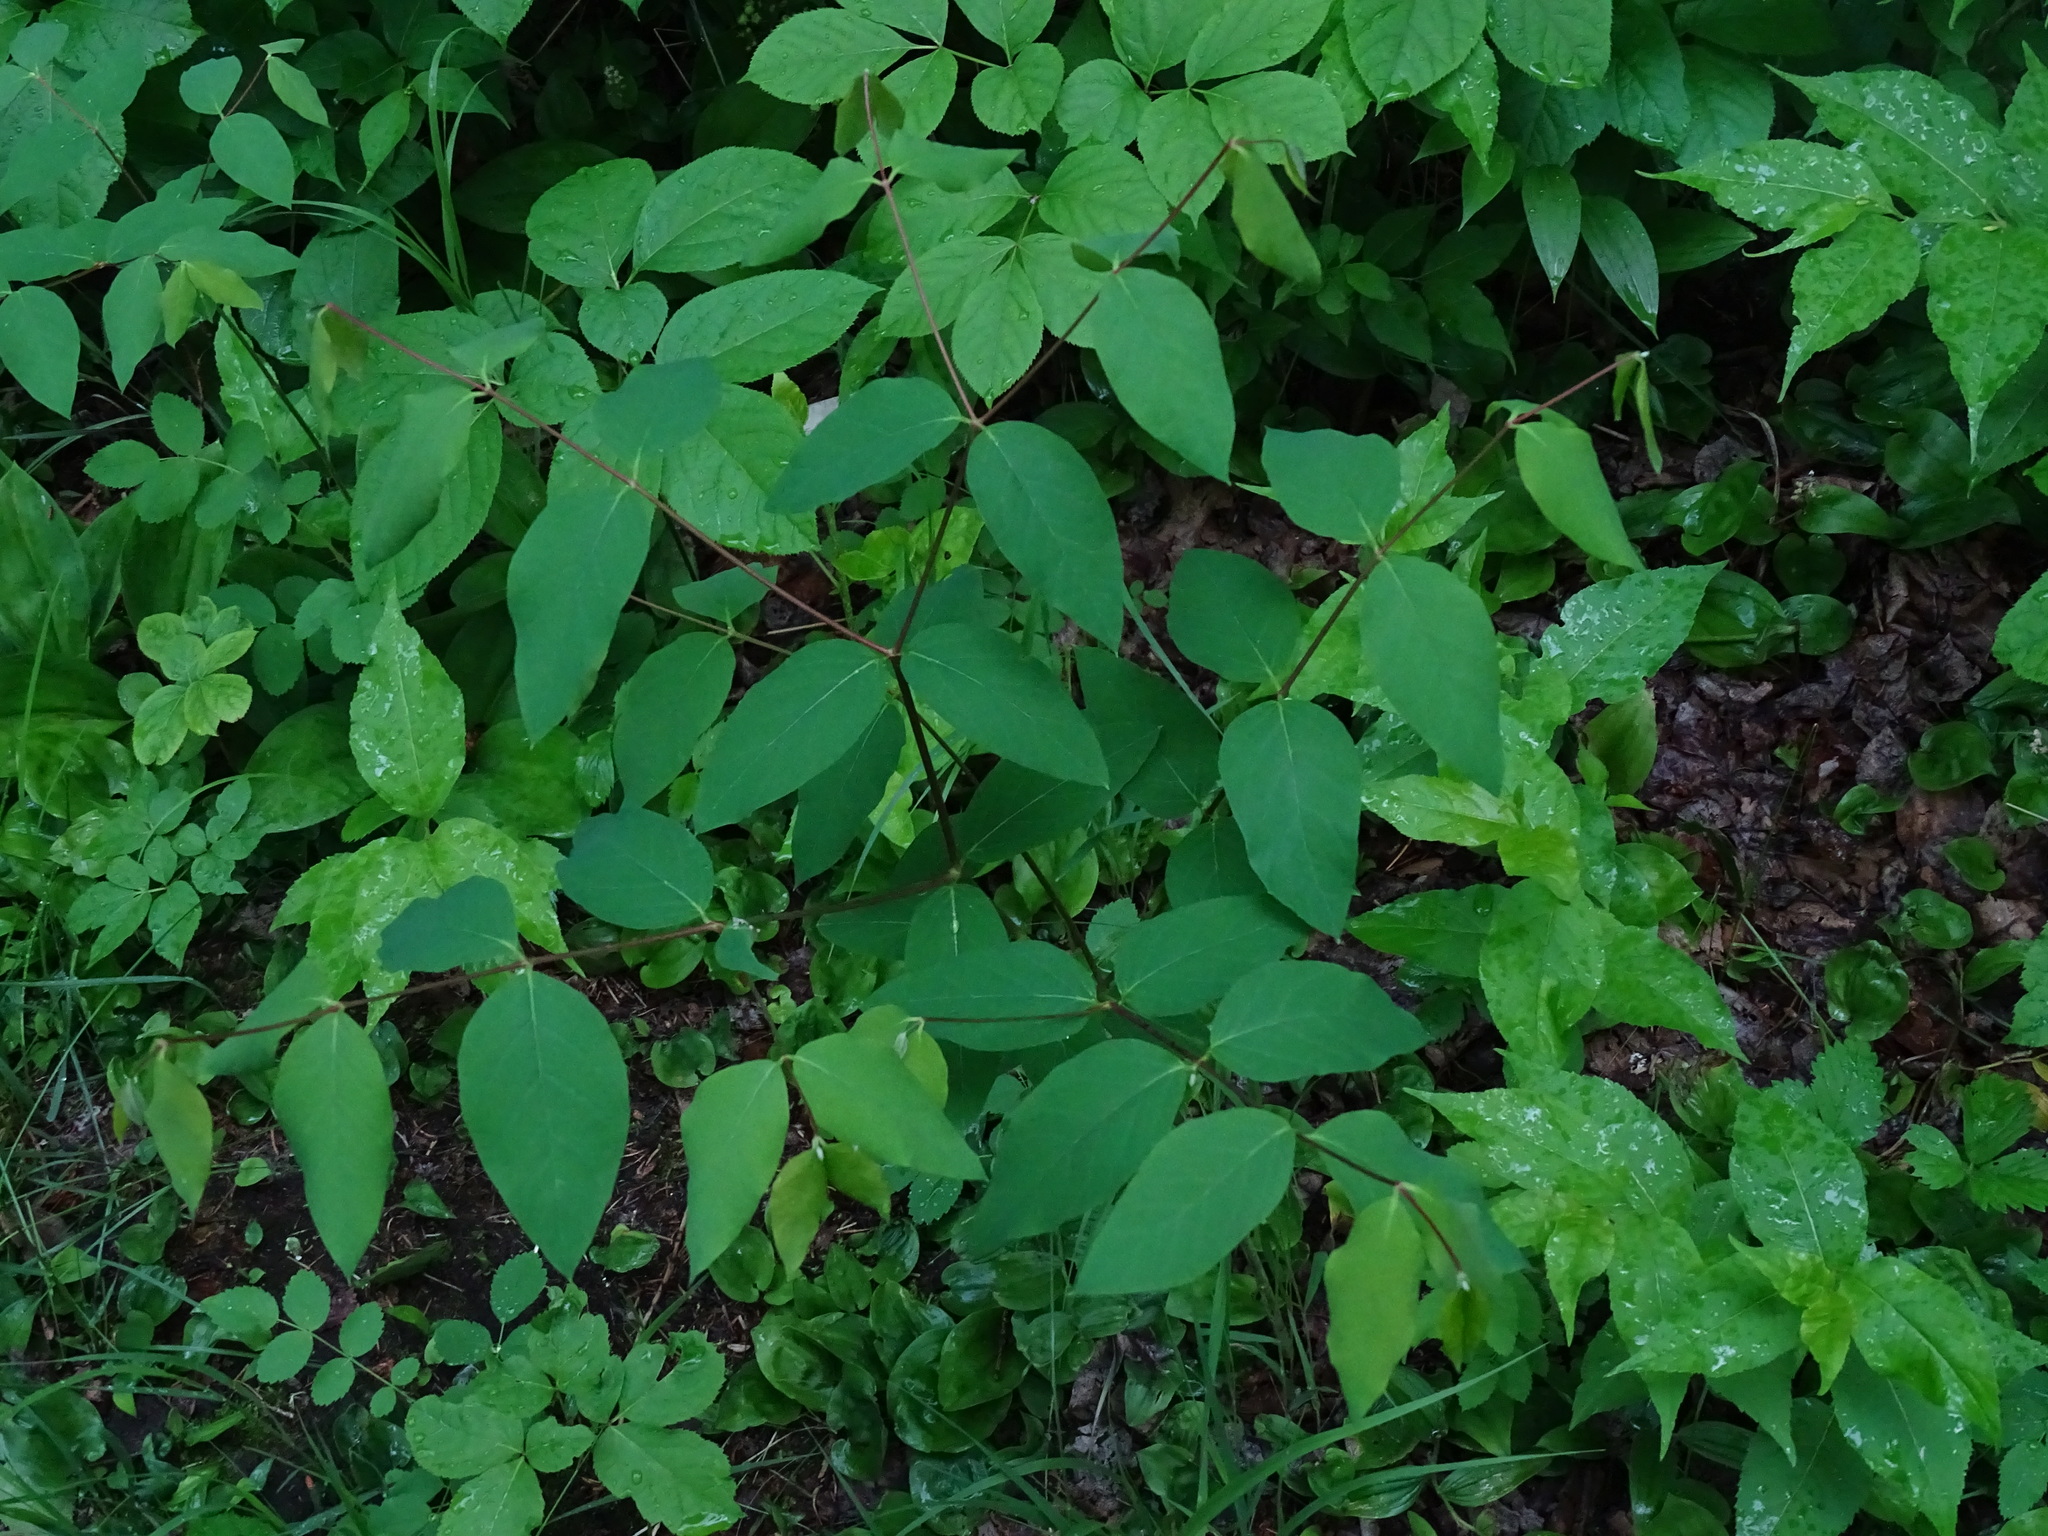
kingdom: Plantae
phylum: Tracheophyta
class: Magnoliopsida
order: Gentianales
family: Apocynaceae
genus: Apocynum
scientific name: Apocynum androsaemifolium
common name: Spreading dogbane
